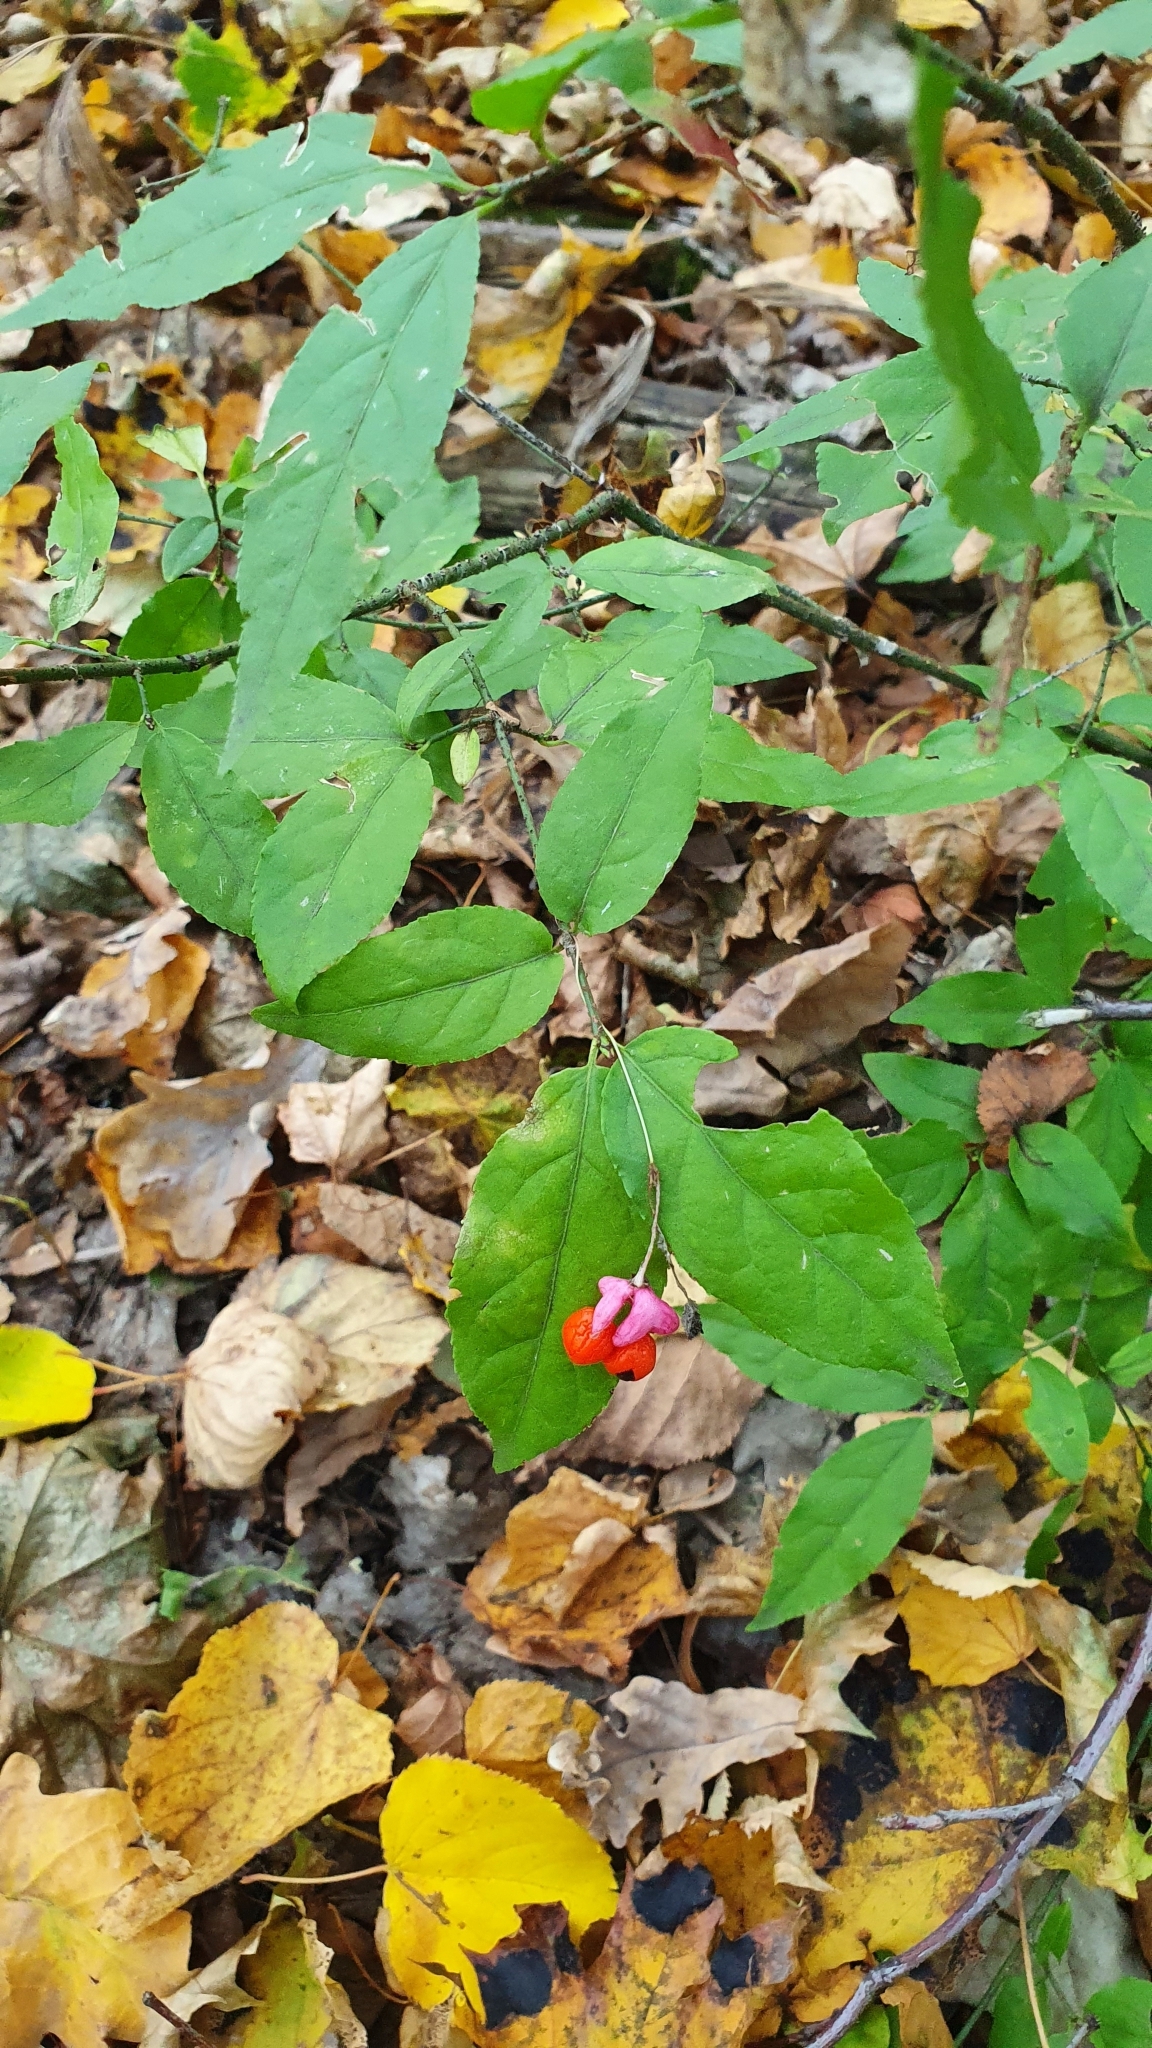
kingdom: Plantae
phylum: Tracheophyta
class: Magnoliopsida
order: Celastrales
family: Celastraceae
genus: Euonymus
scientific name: Euonymus verrucosus
